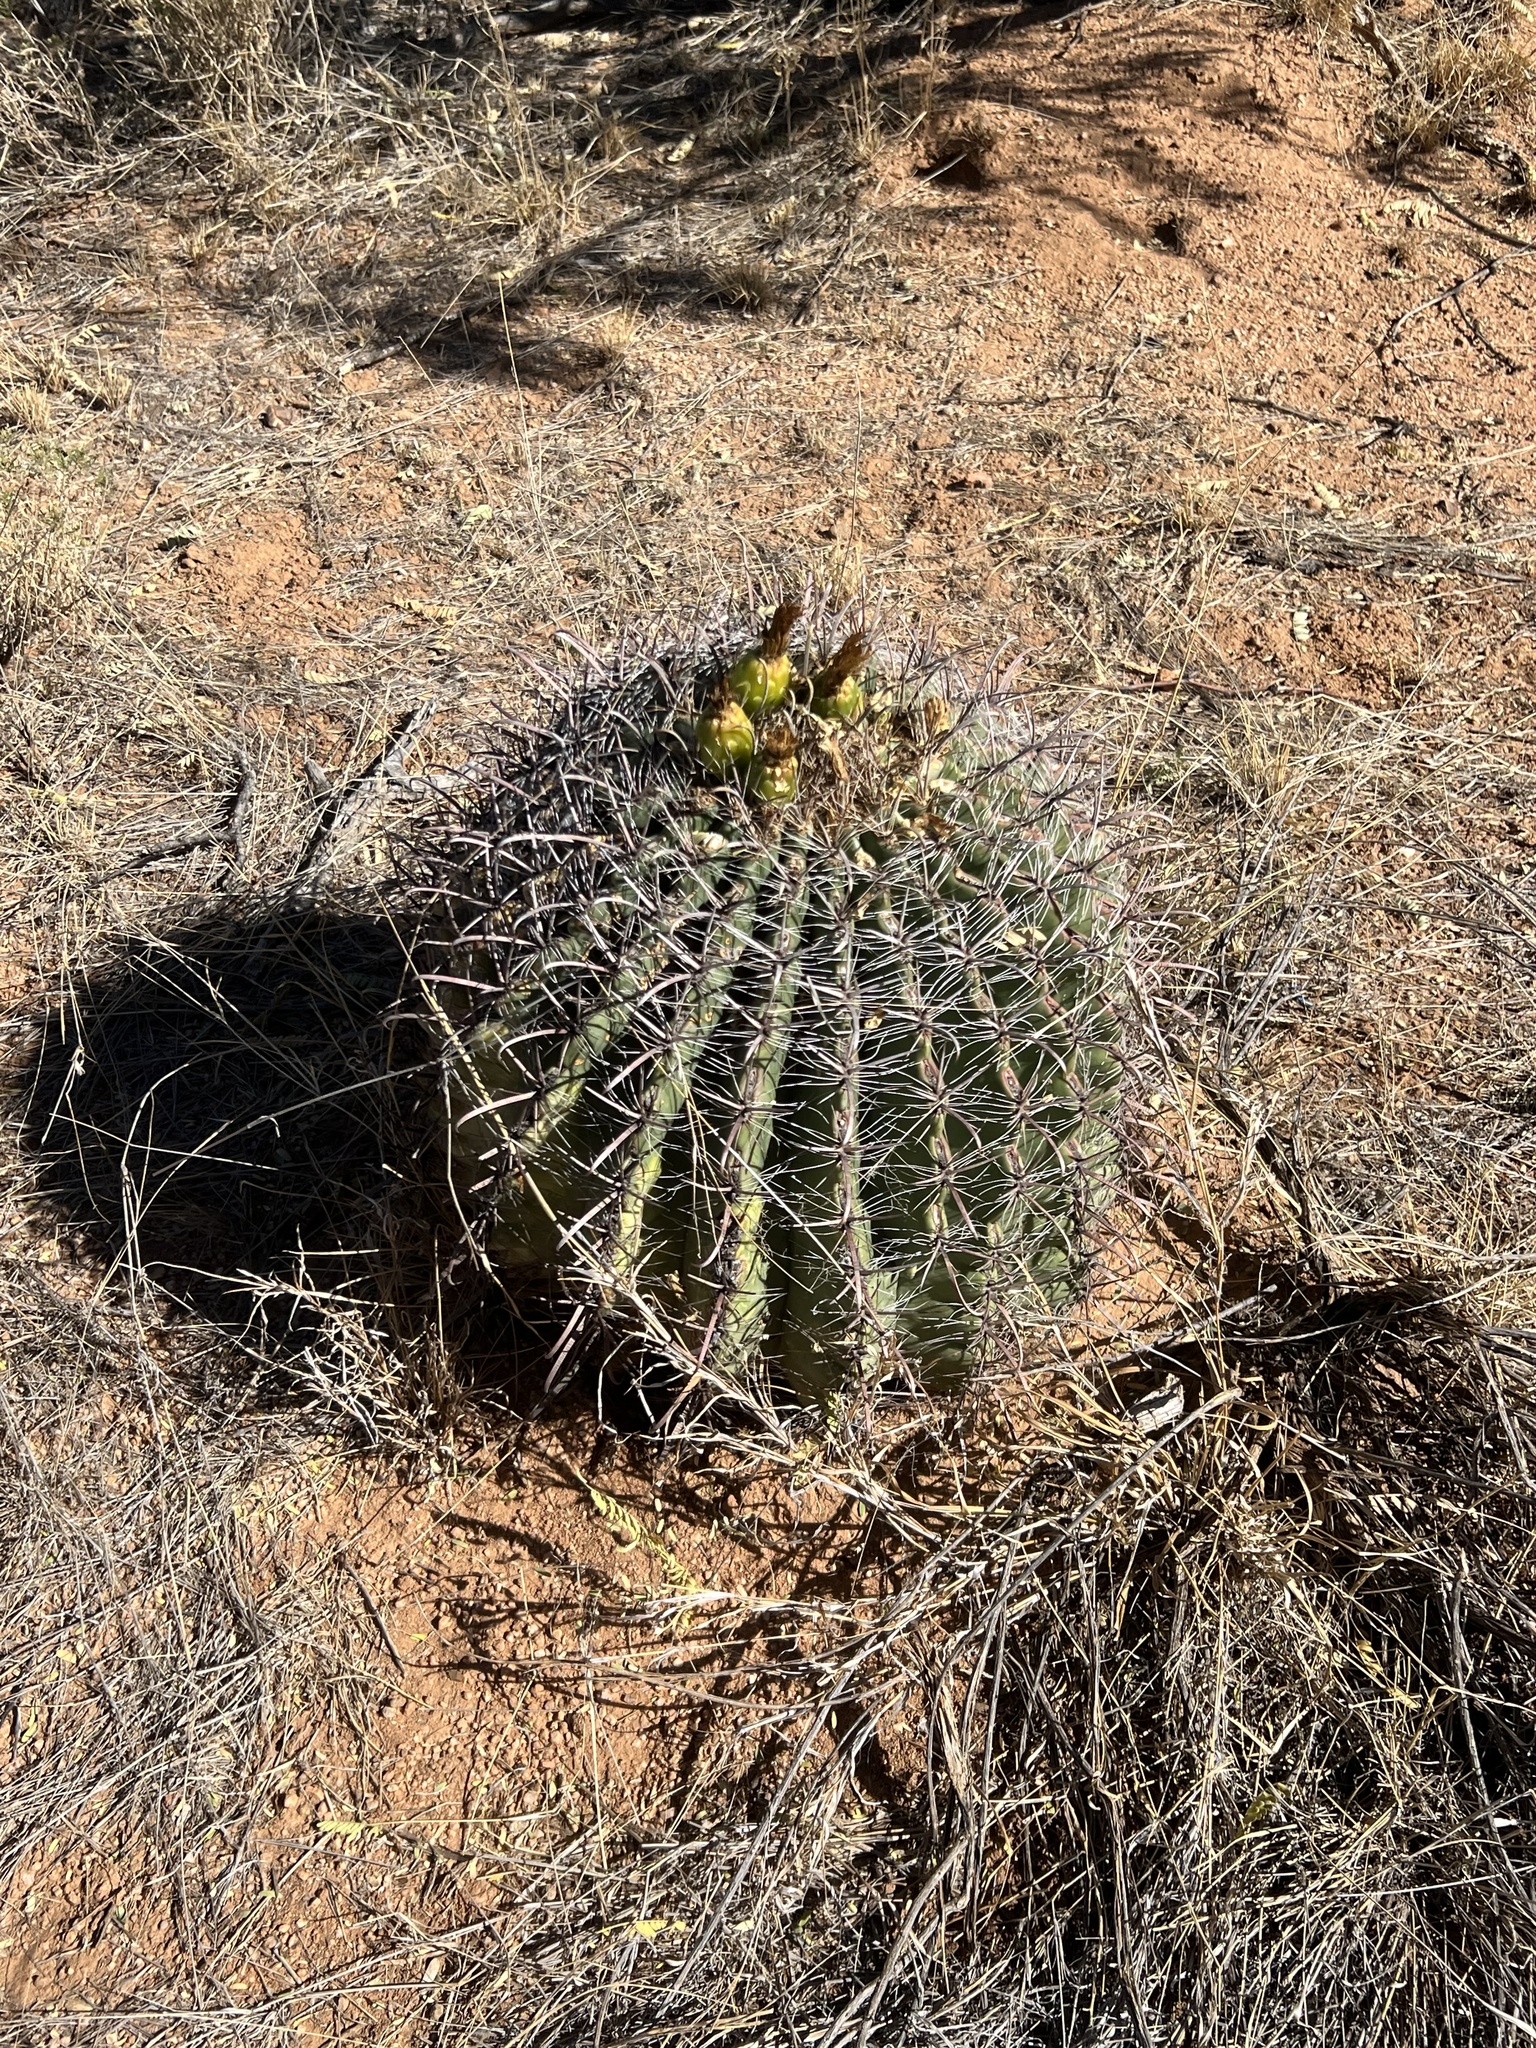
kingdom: Plantae
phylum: Tracheophyta
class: Magnoliopsida
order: Caryophyllales
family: Cactaceae
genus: Ferocactus
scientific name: Ferocactus wislizeni
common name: Candy barrel cactus
